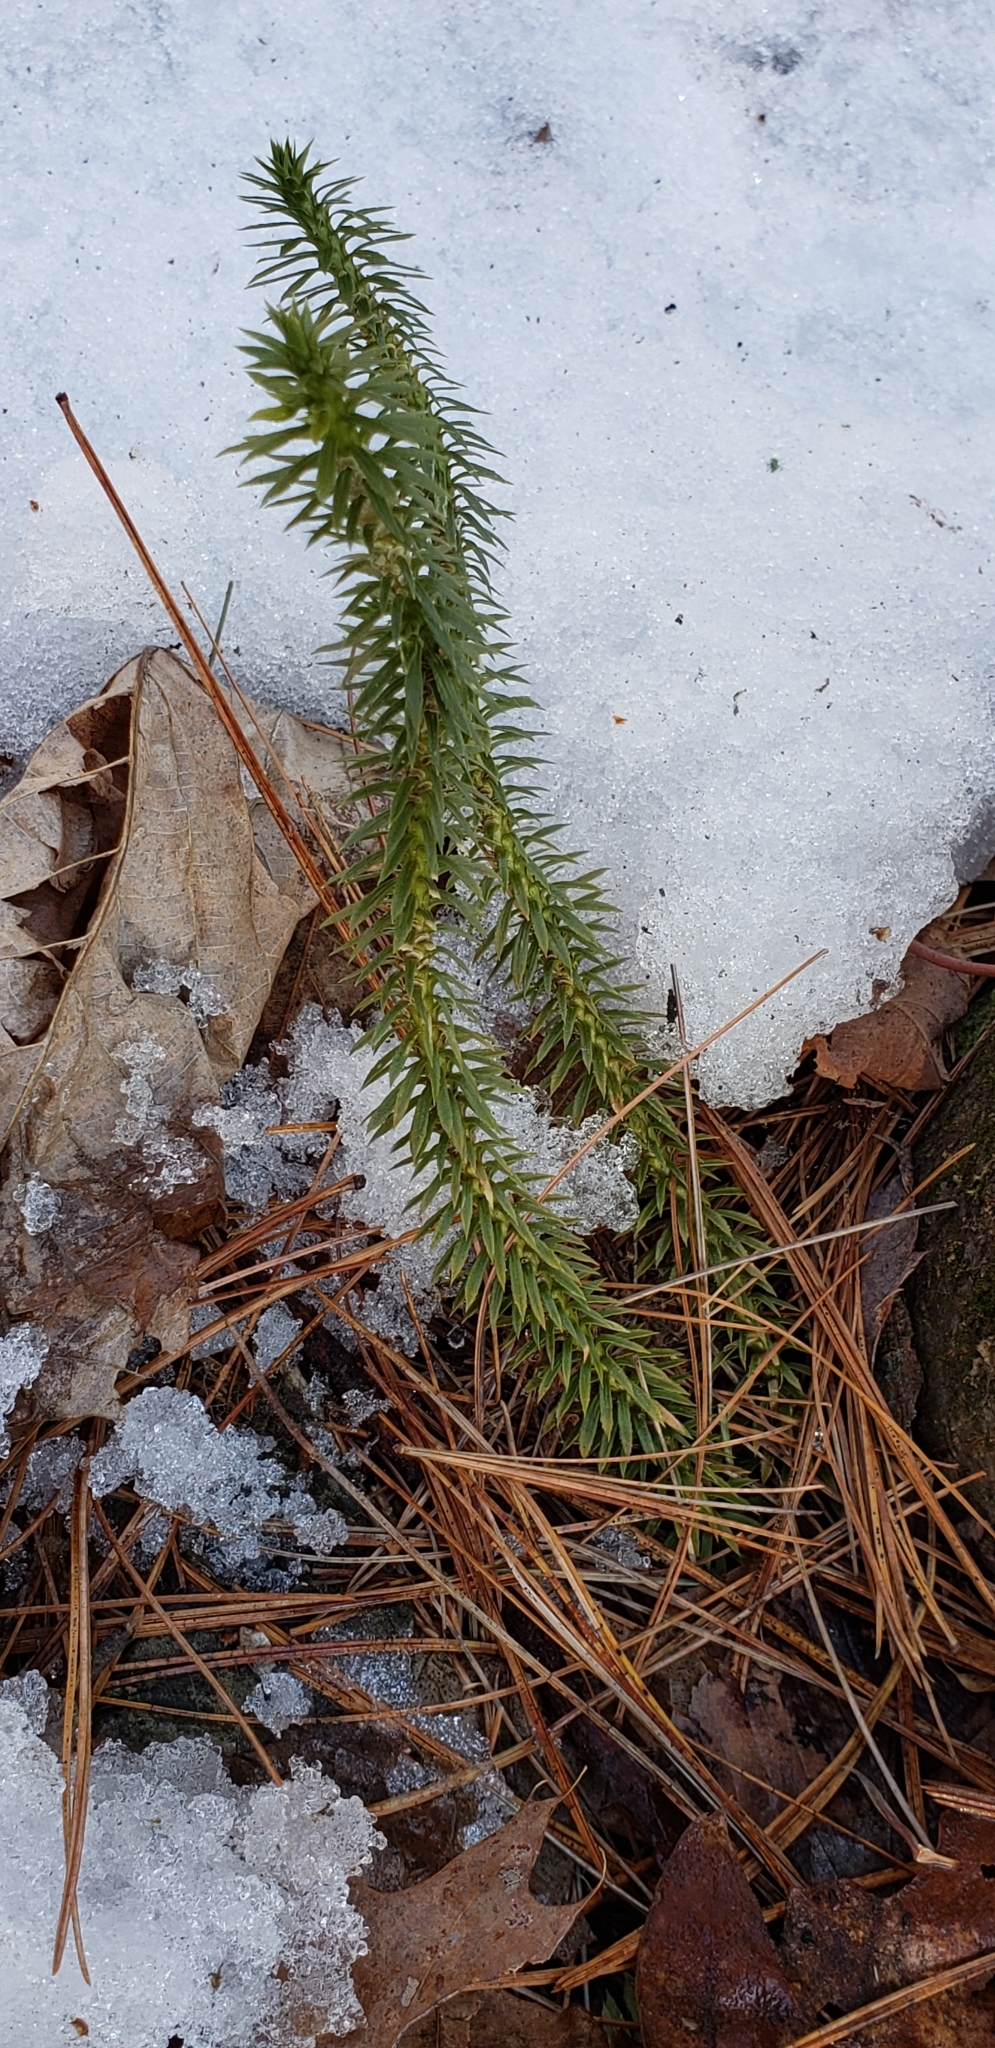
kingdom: Plantae
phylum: Tracheophyta
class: Lycopodiopsida
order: Lycopodiales
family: Lycopodiaceae
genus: Huperzia
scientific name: Huperzia lucidula
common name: Shining clubmoss
